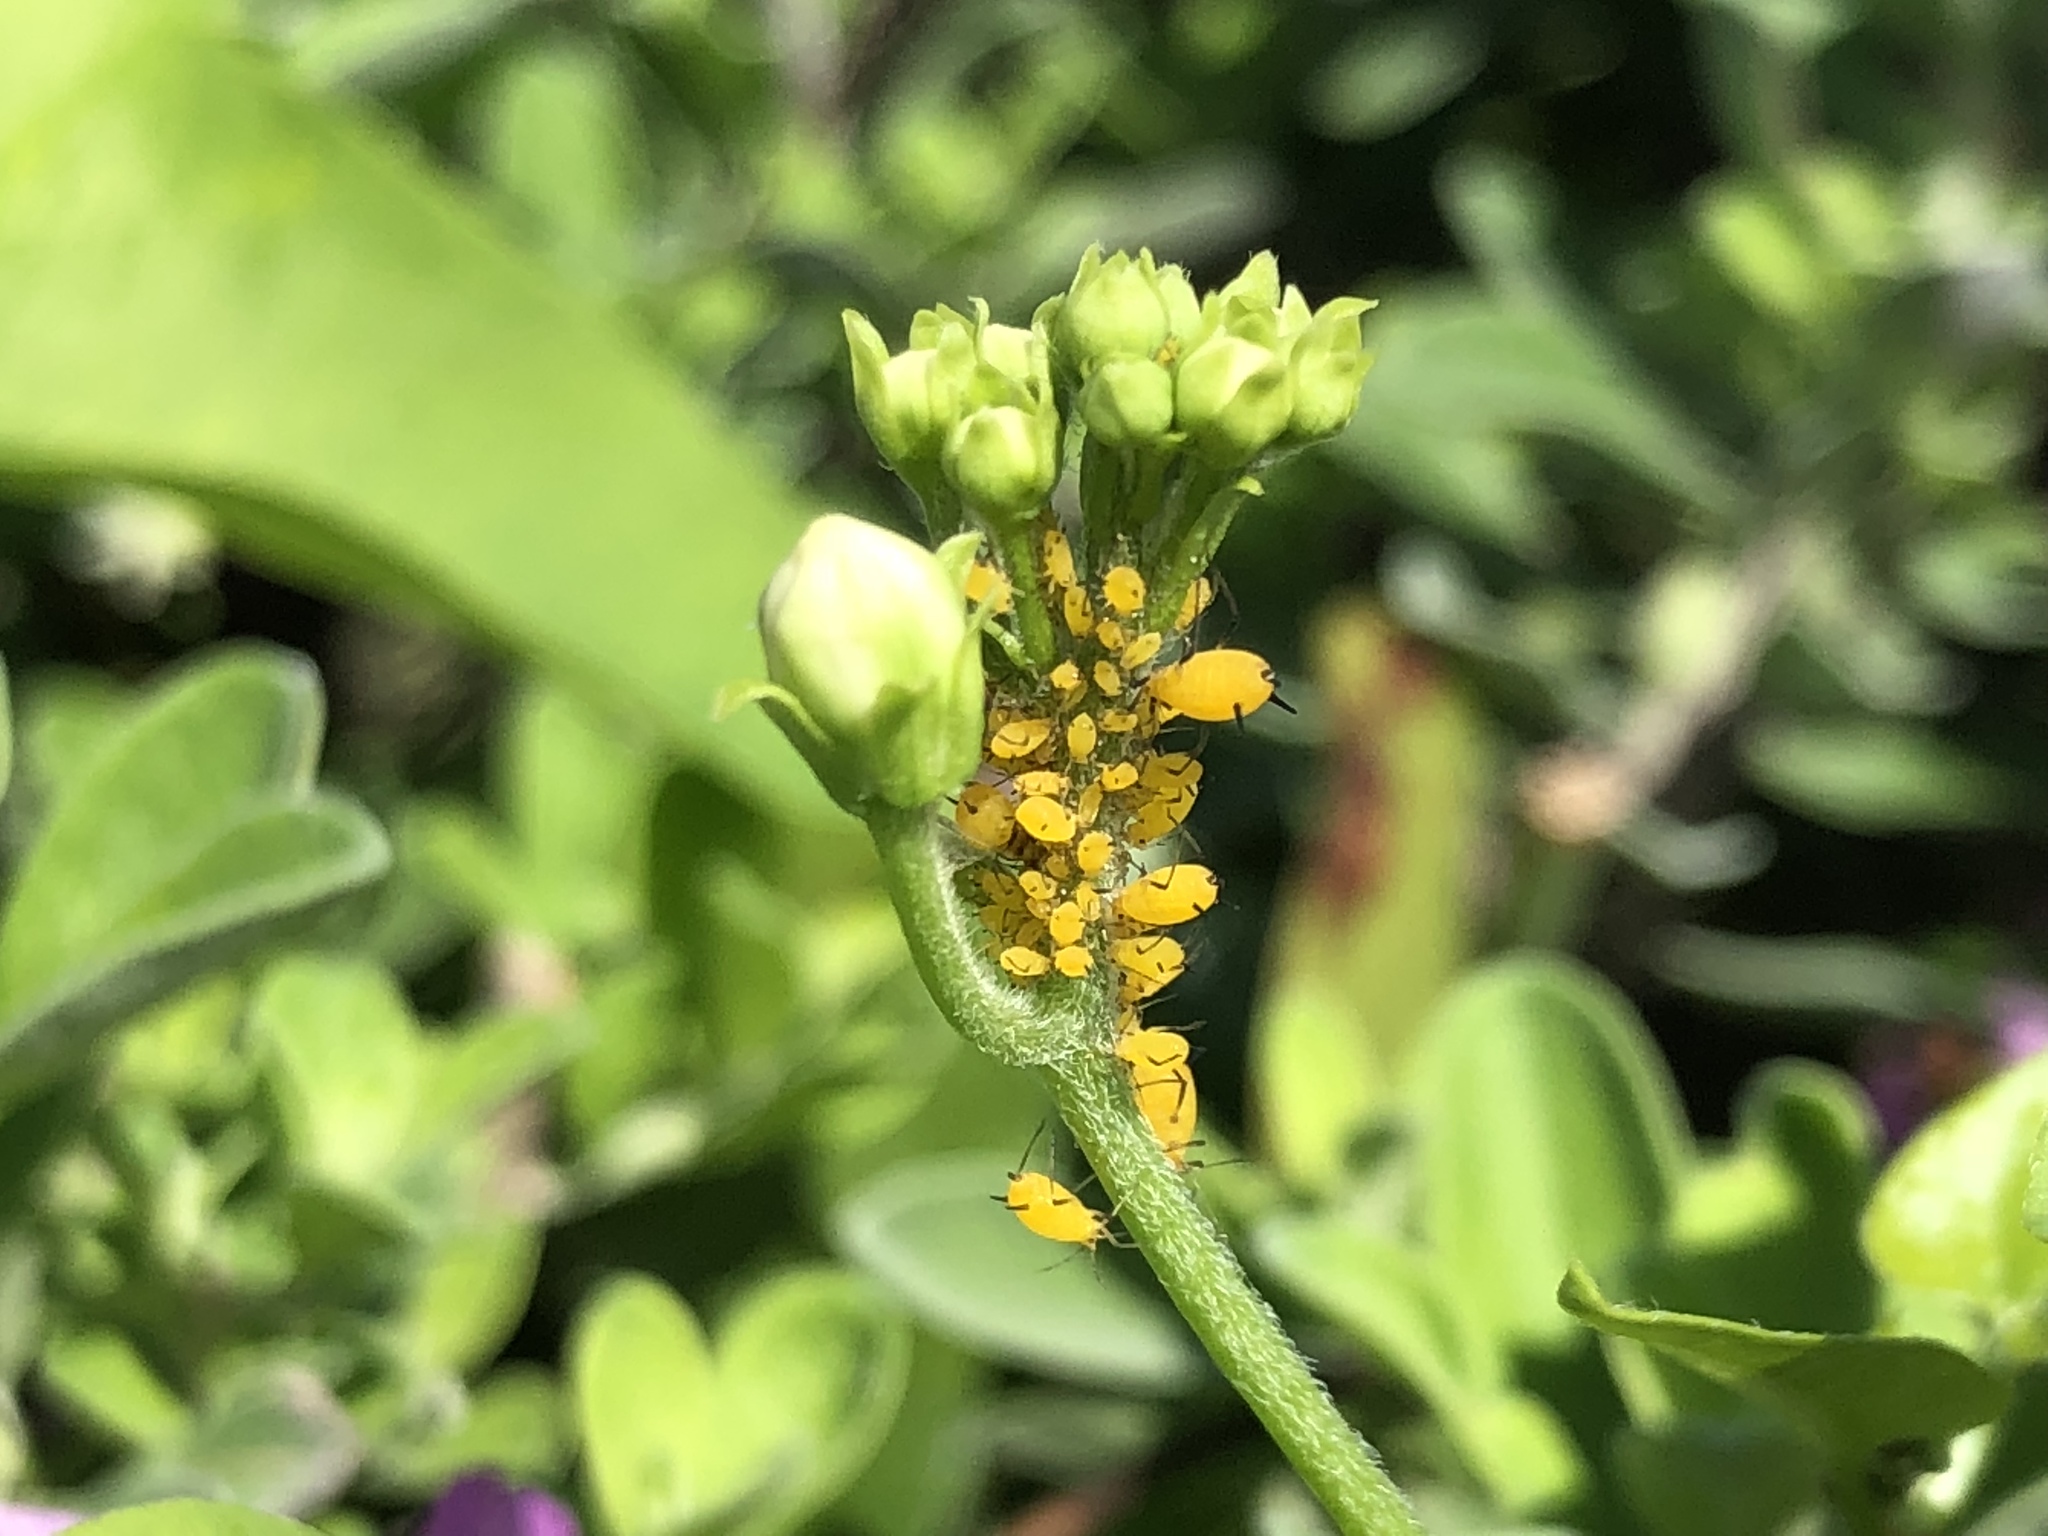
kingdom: Animalia
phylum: Arthropoda
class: Insecta
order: Hemiptera
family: Aphididae
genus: Aphis
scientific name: Aphis nerii
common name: Oleander aphid
